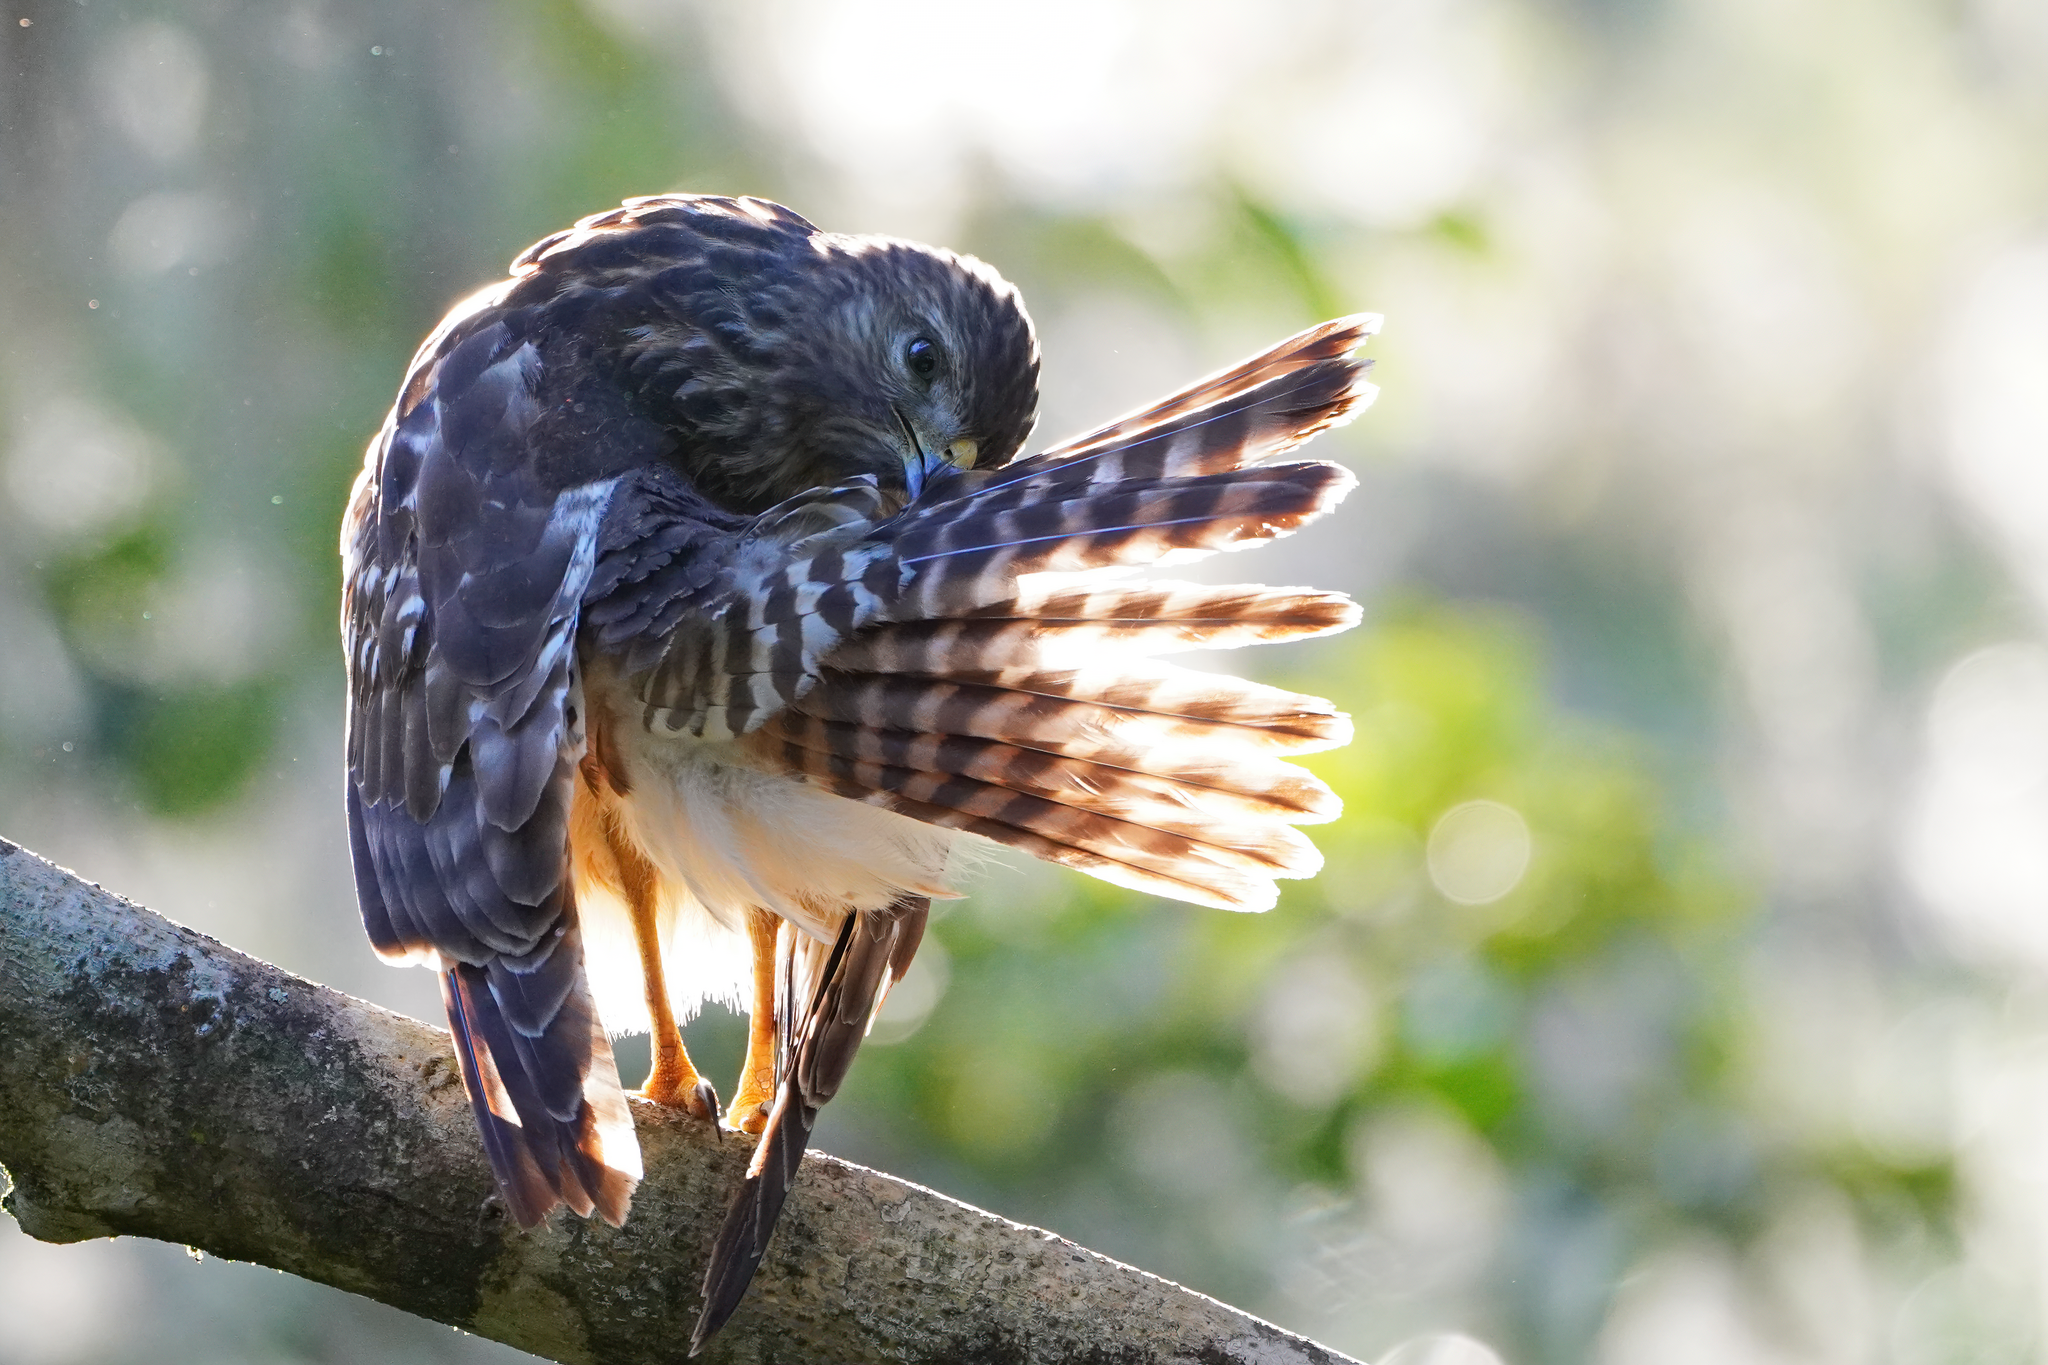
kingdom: Animalia
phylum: Chordata
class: Aves
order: Accipitriformes
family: Accipitridae
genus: Buteo
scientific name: Buteo lineatus
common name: Red-shouldered hawk
